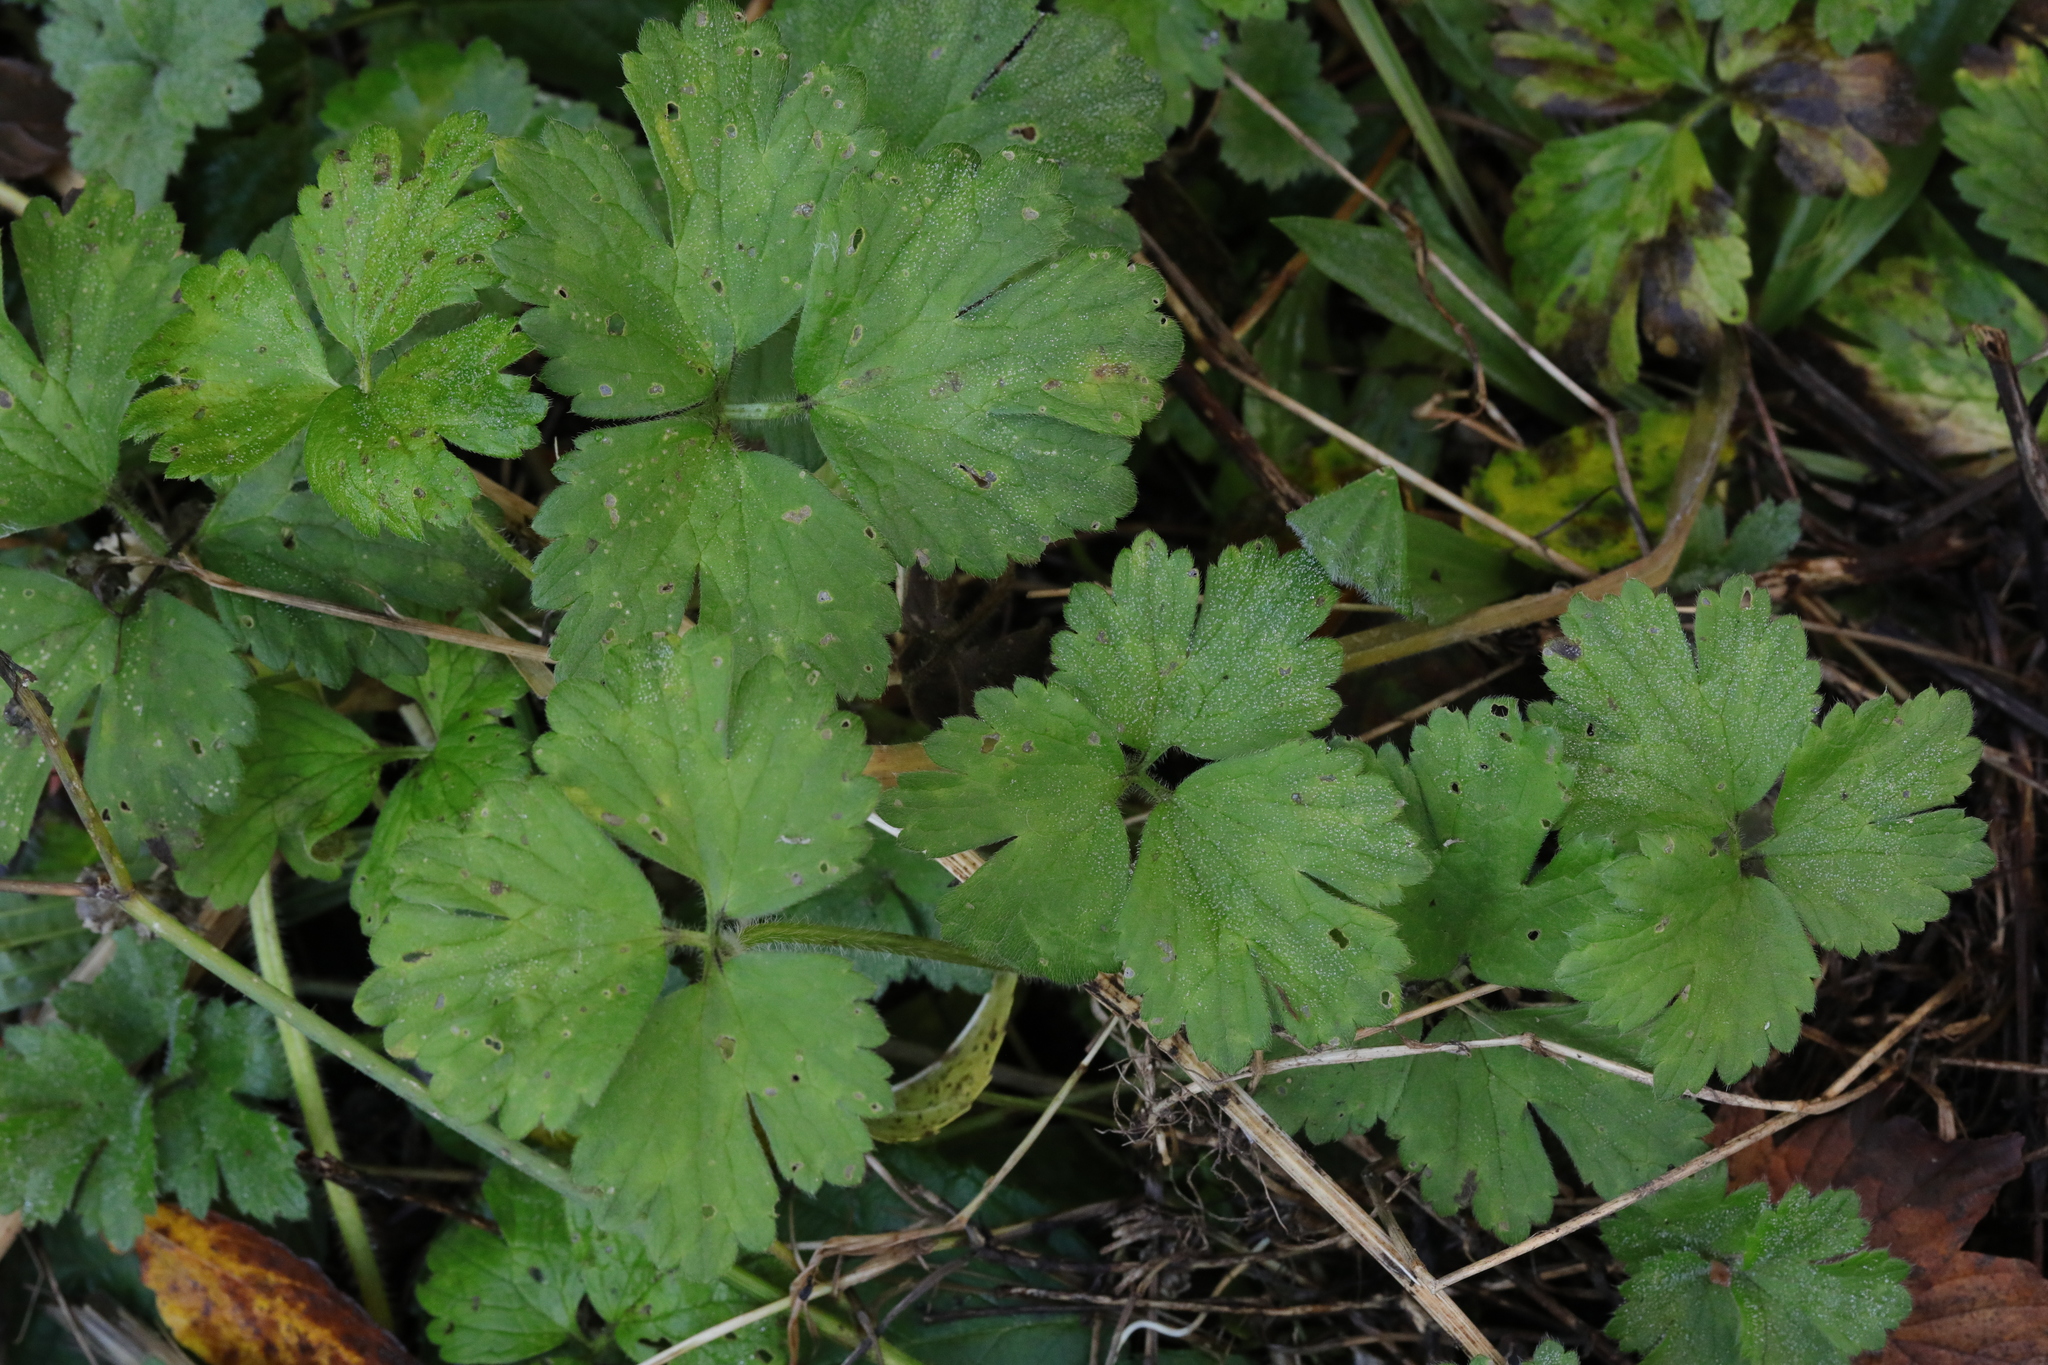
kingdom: Plantae
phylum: Tracheophyta
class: Magnoliopsida
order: Ranunculales
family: Ranunculaceae
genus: Ranunculus
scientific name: Ranunculus repens
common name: Creeping buttercup
